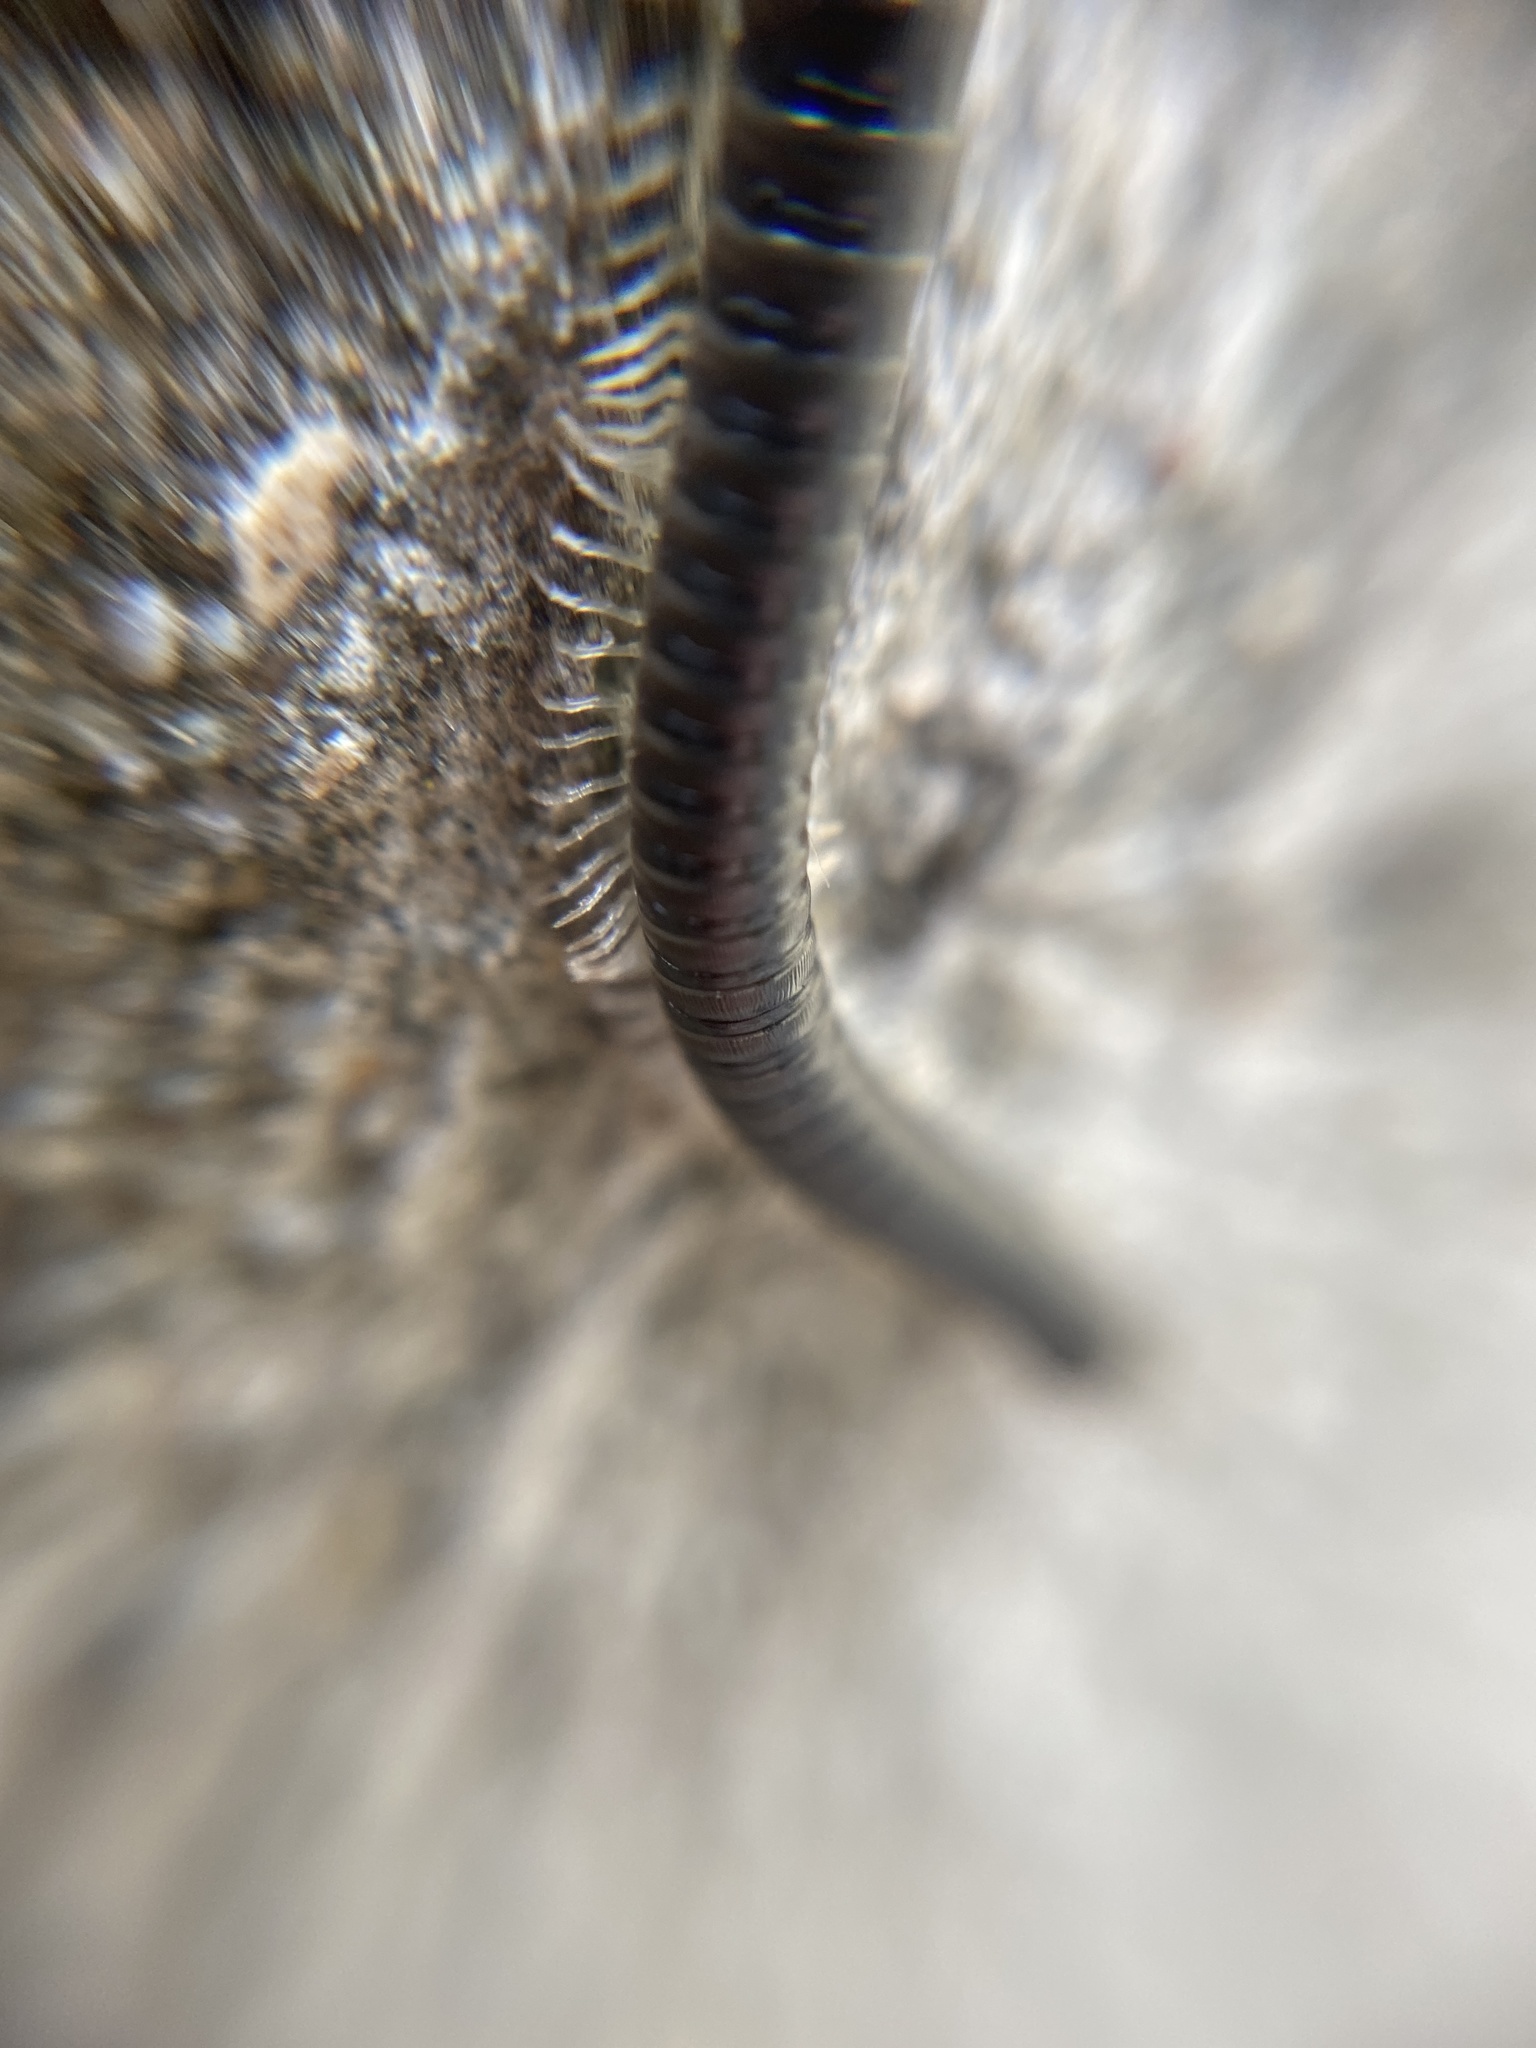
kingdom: Animalia
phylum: Arthropoda
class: Diplopoda
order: Julida
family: Julidae
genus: Tachypodoiulus
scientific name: Tachypodoiulus niger
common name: White-legged snake millipede
